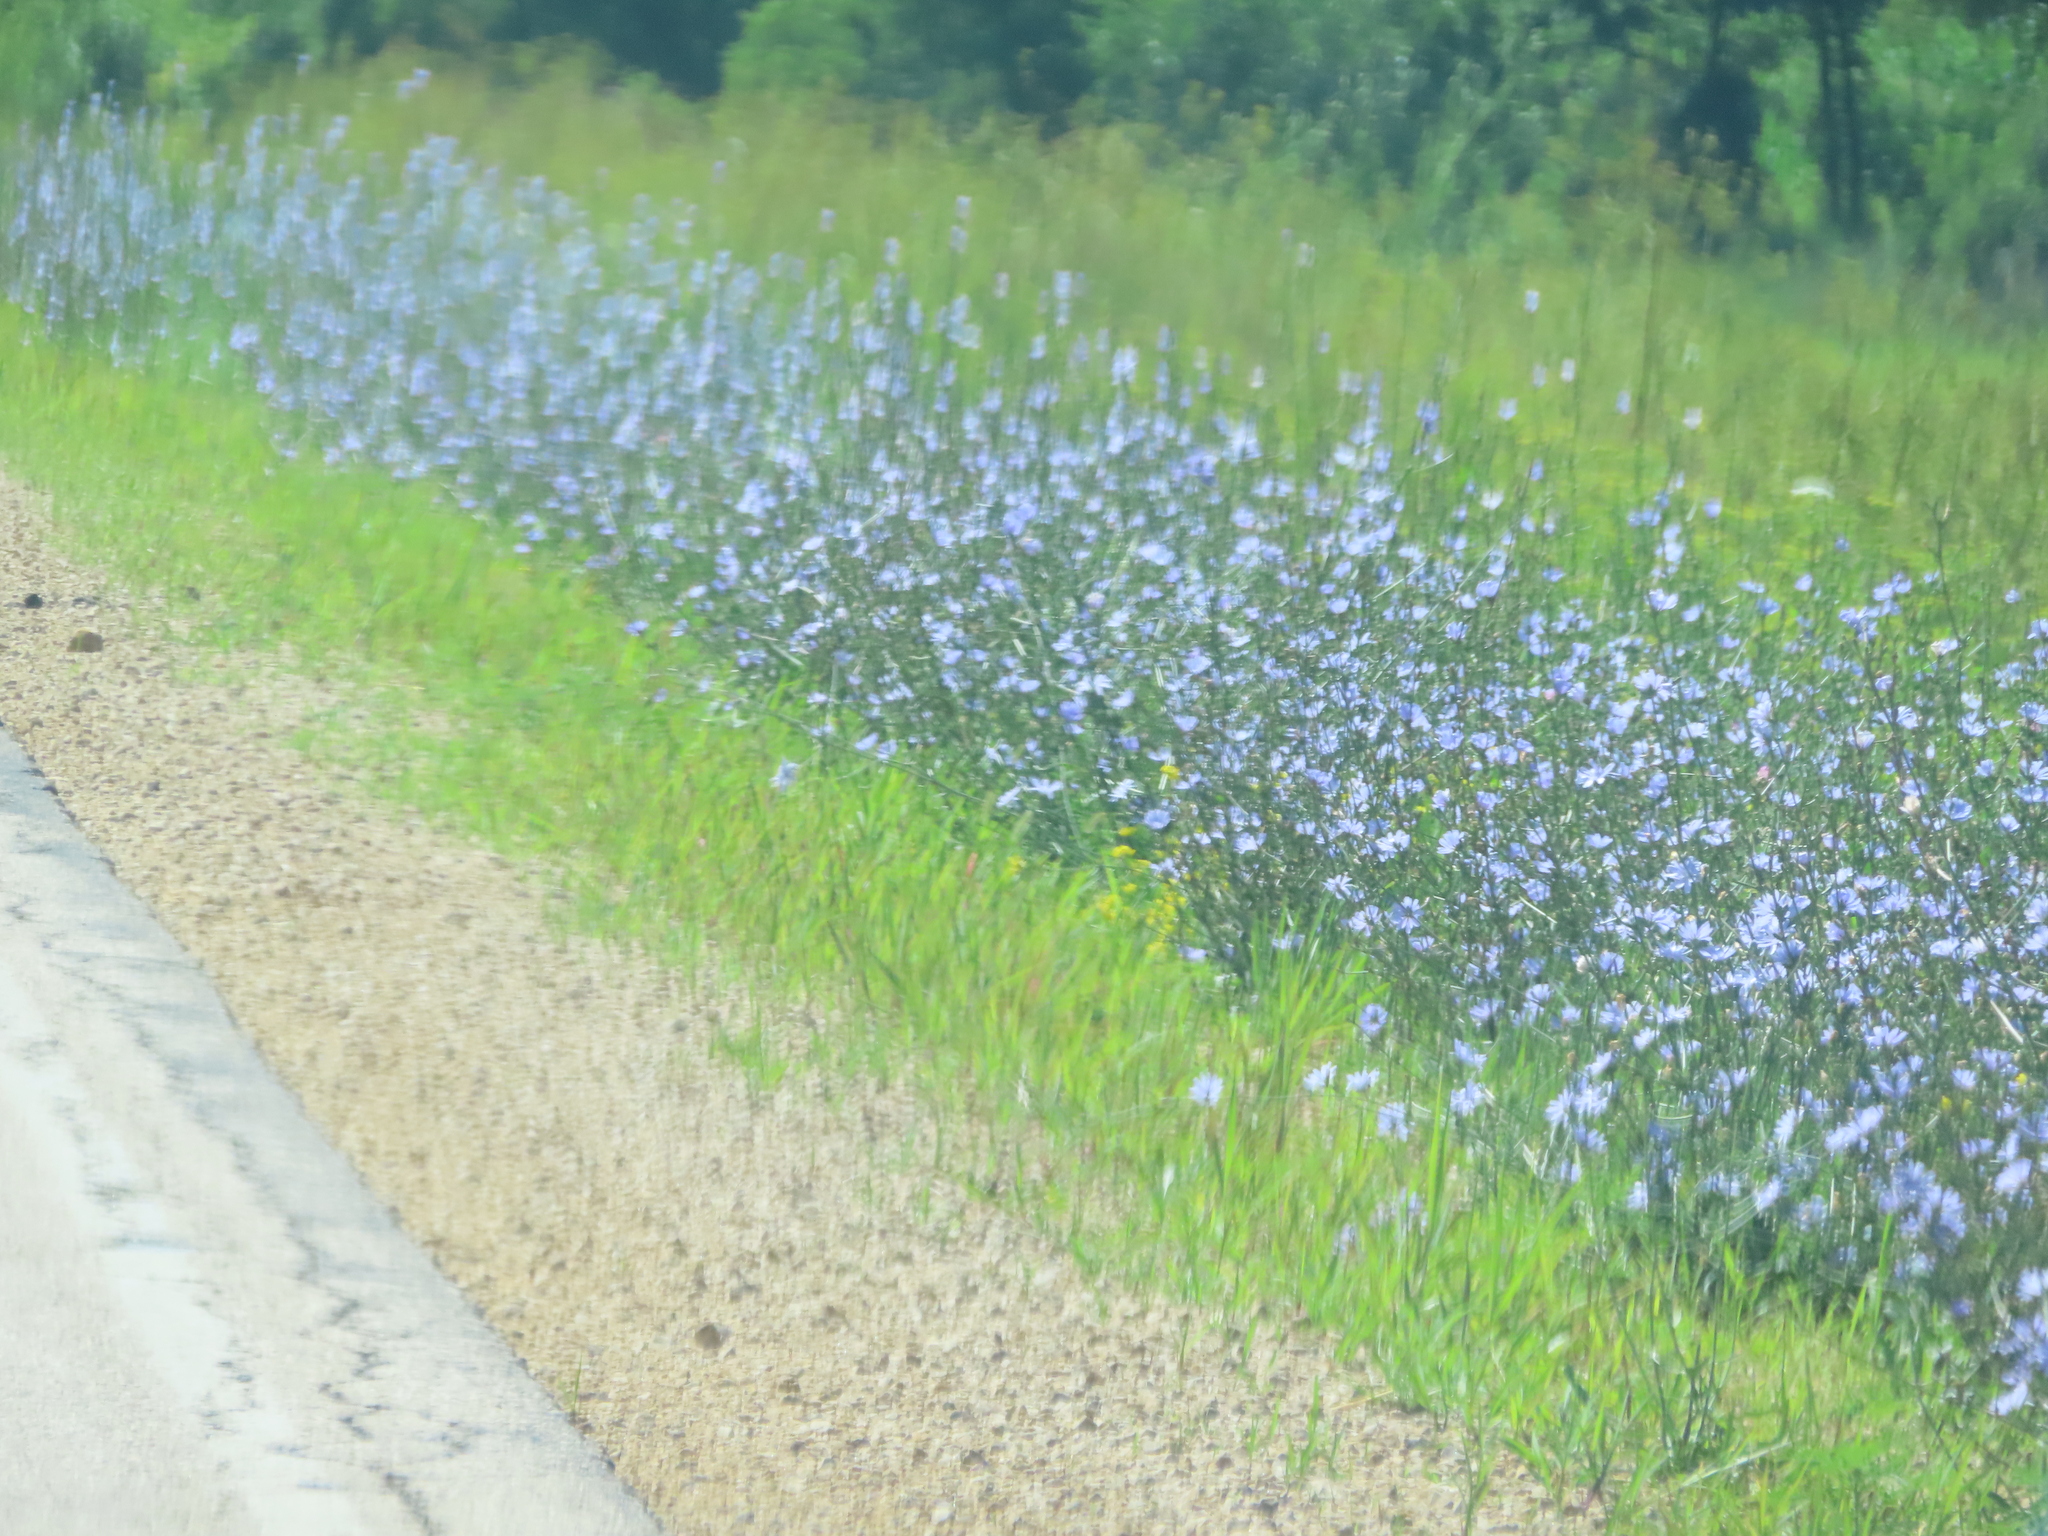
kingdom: Plantae
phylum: Tracheophyta
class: Magnoliopsida
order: Asterales
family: Asteraceae
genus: Cichorium
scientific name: Cichorium intybus
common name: Chicory
